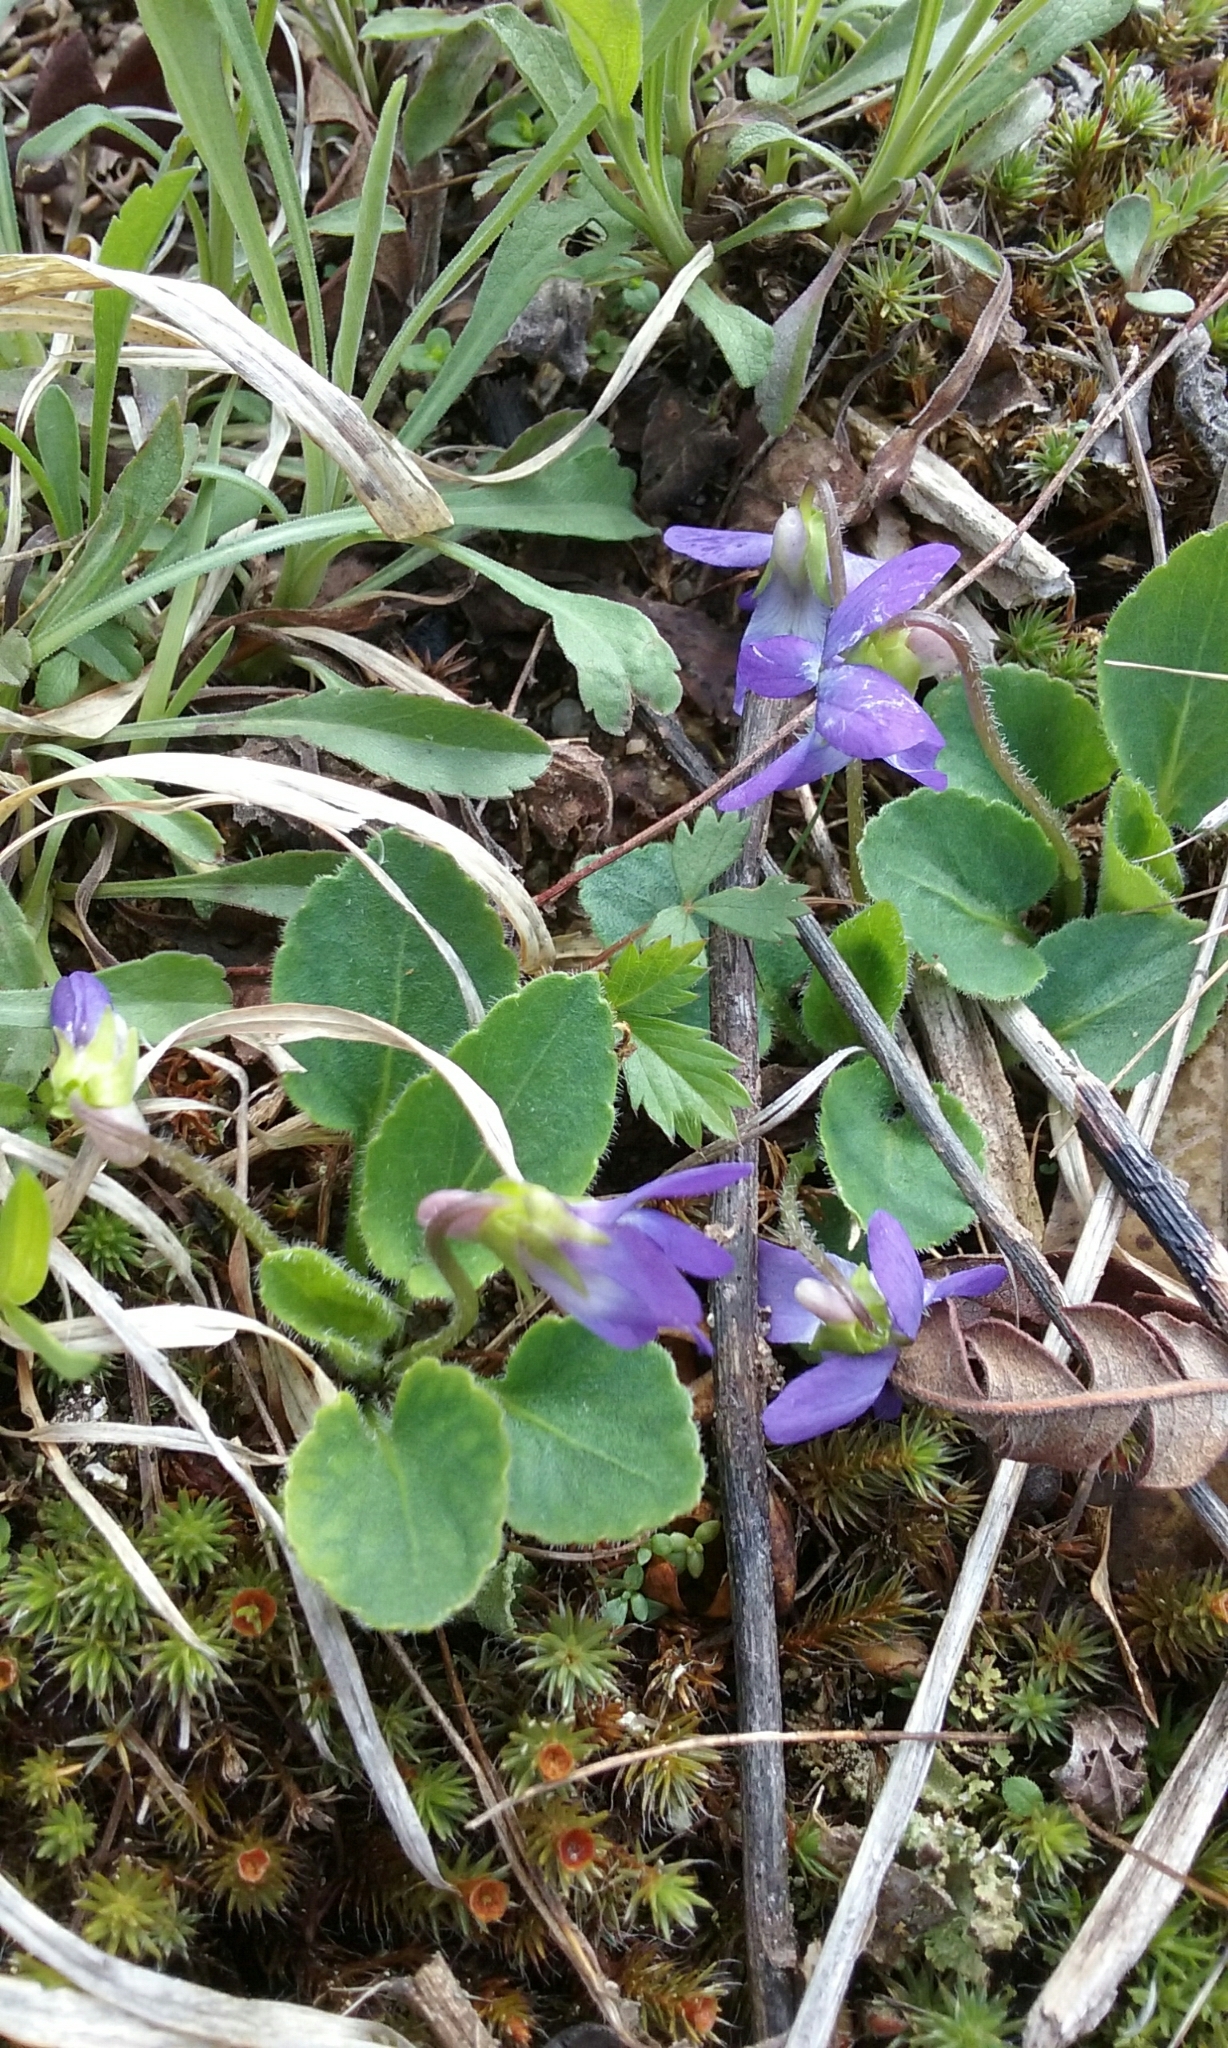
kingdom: Plantae
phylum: Tracheophyta
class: Magnoliopsida
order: Malpighiales
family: Violaceae
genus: Viola
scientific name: Viola
